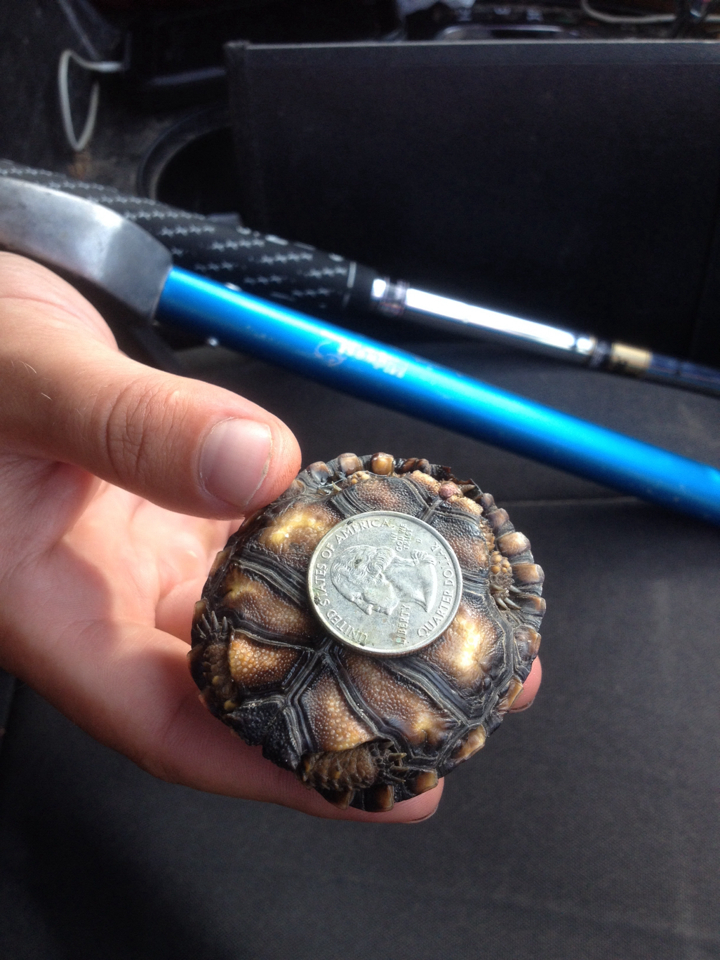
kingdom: Animalia
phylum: Chordata
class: Testudines
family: Testudinidae
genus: Gopherus
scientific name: Gopherus berlandieri
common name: Texas (gopher )tortoise
